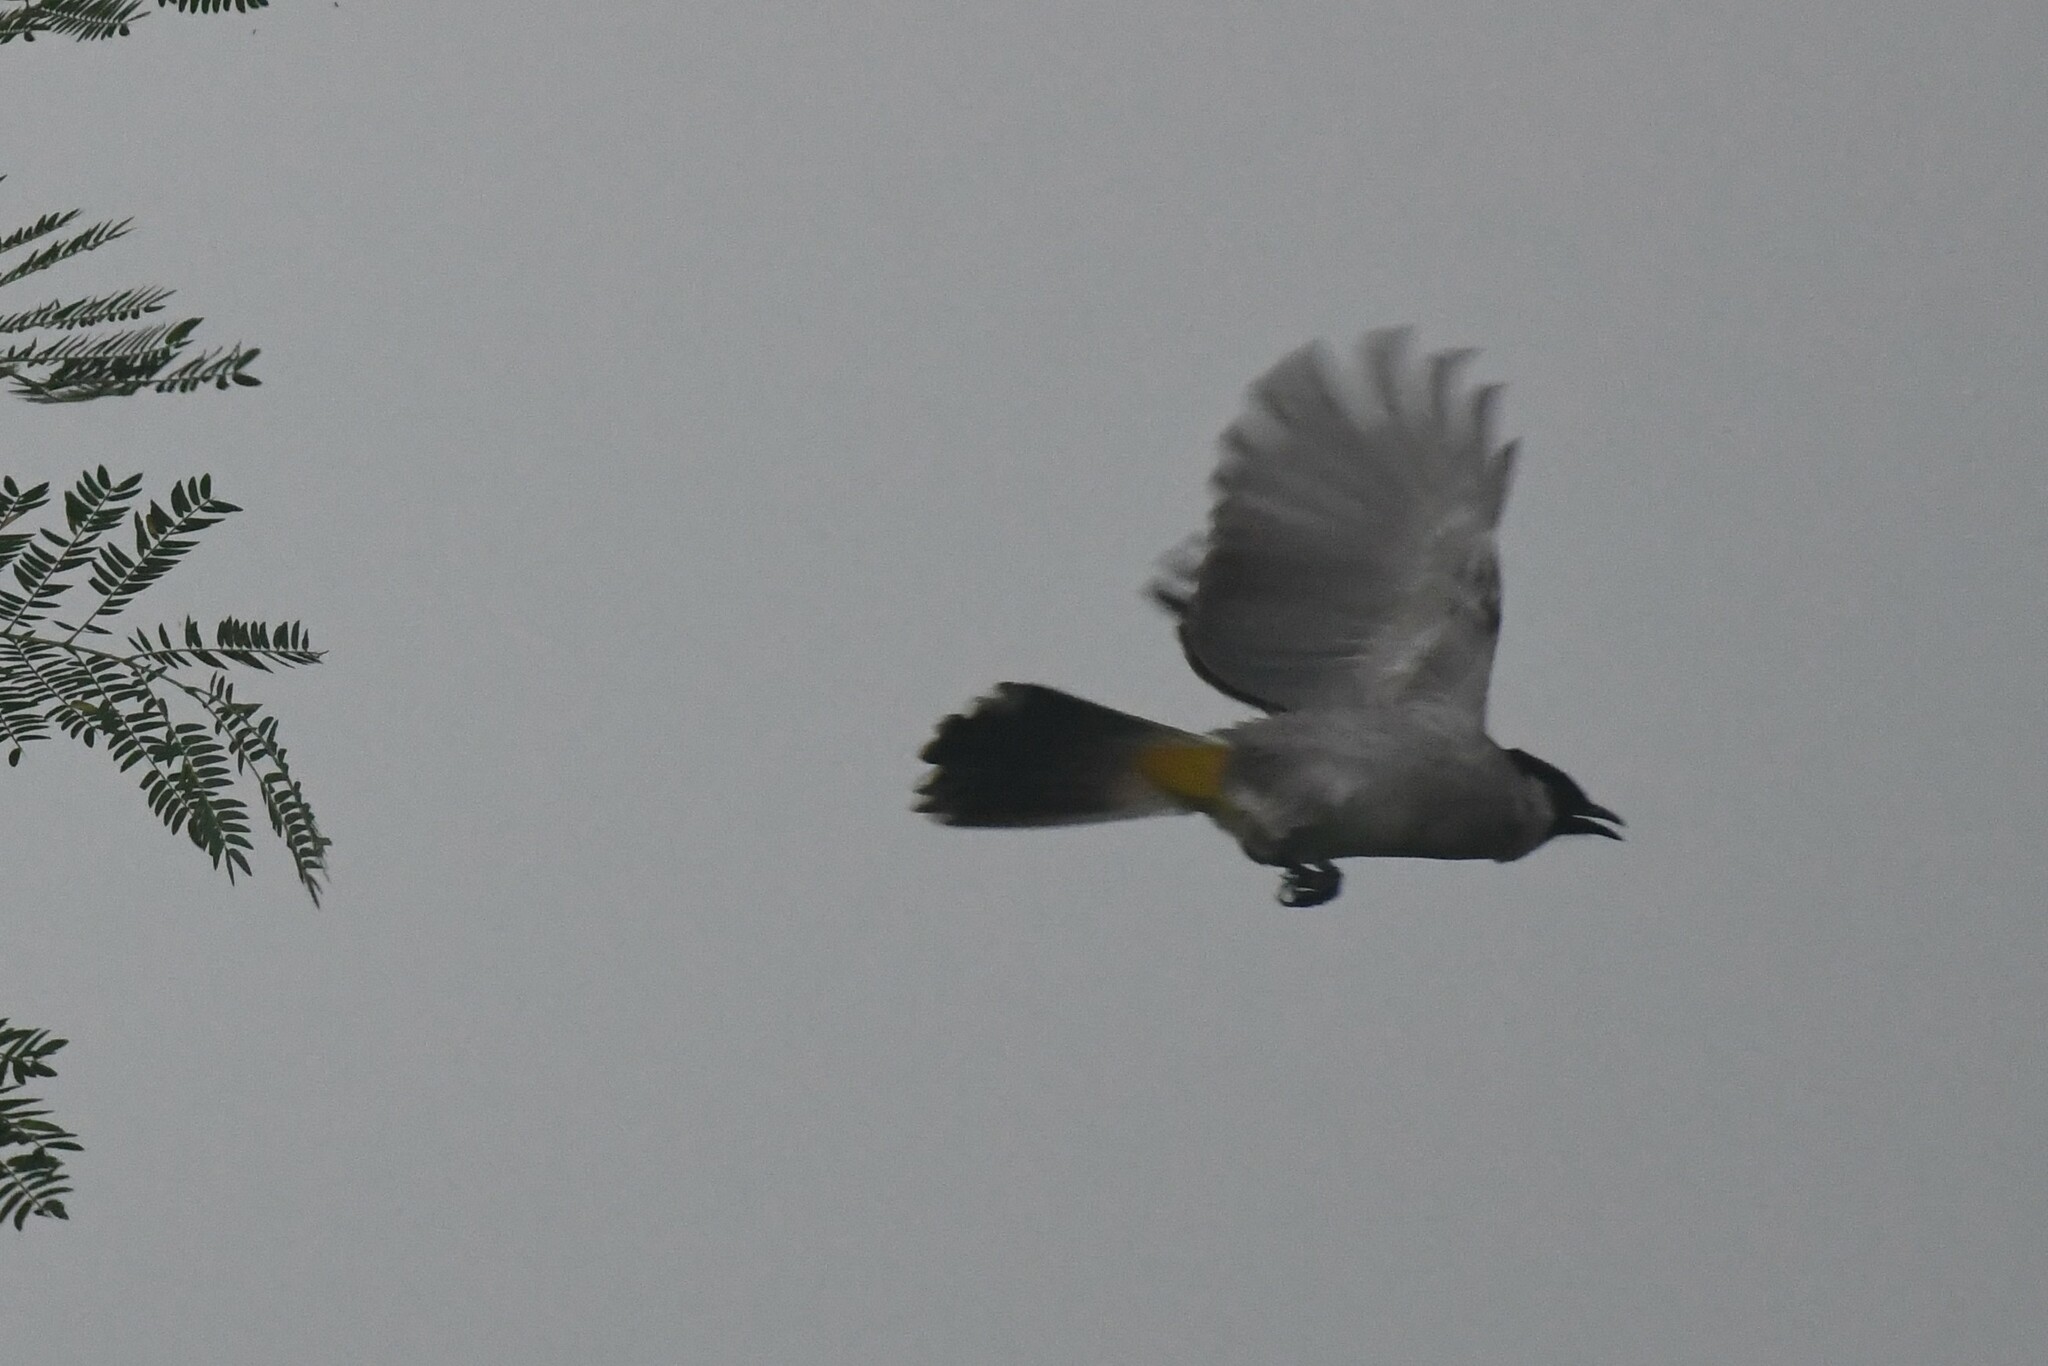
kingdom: Animalia
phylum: Chordata
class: Aves
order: Passeriformes
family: Pycnonotidae
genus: Pycnonotus
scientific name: Pycnonotus aurigaster
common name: Sooty-headed bulbul
